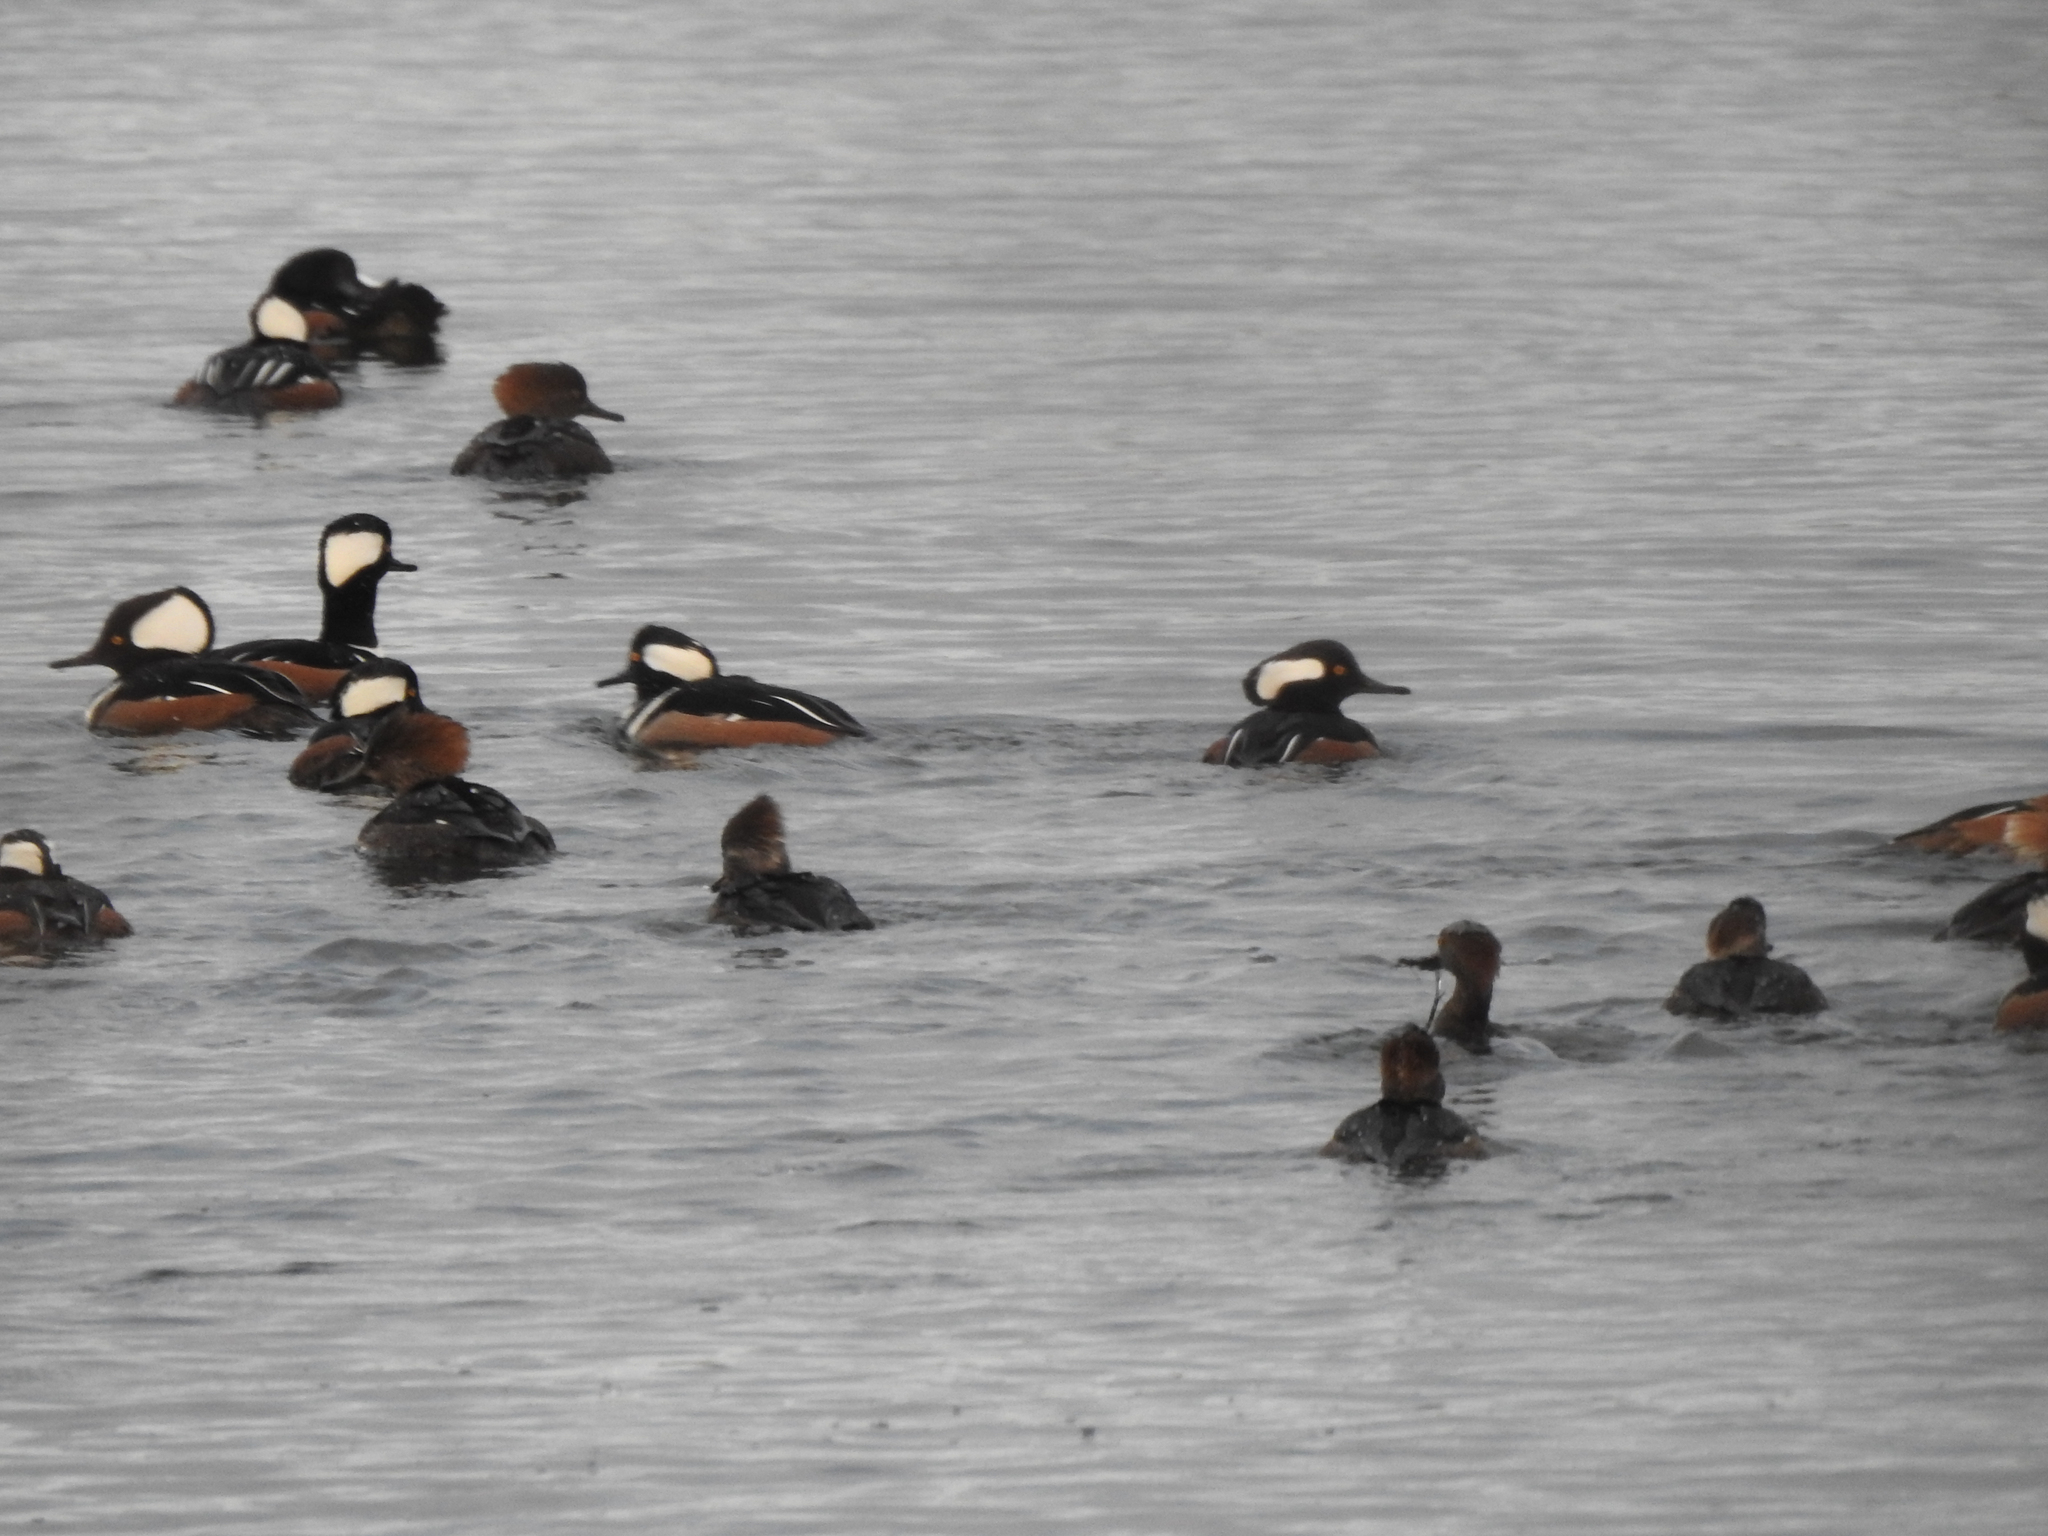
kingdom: Animalia
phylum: Chordata
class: Aves
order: Anseriformes
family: Anatidae
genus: Lophodytes
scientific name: Lophodytes cucullatus
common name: Hooded merganser
